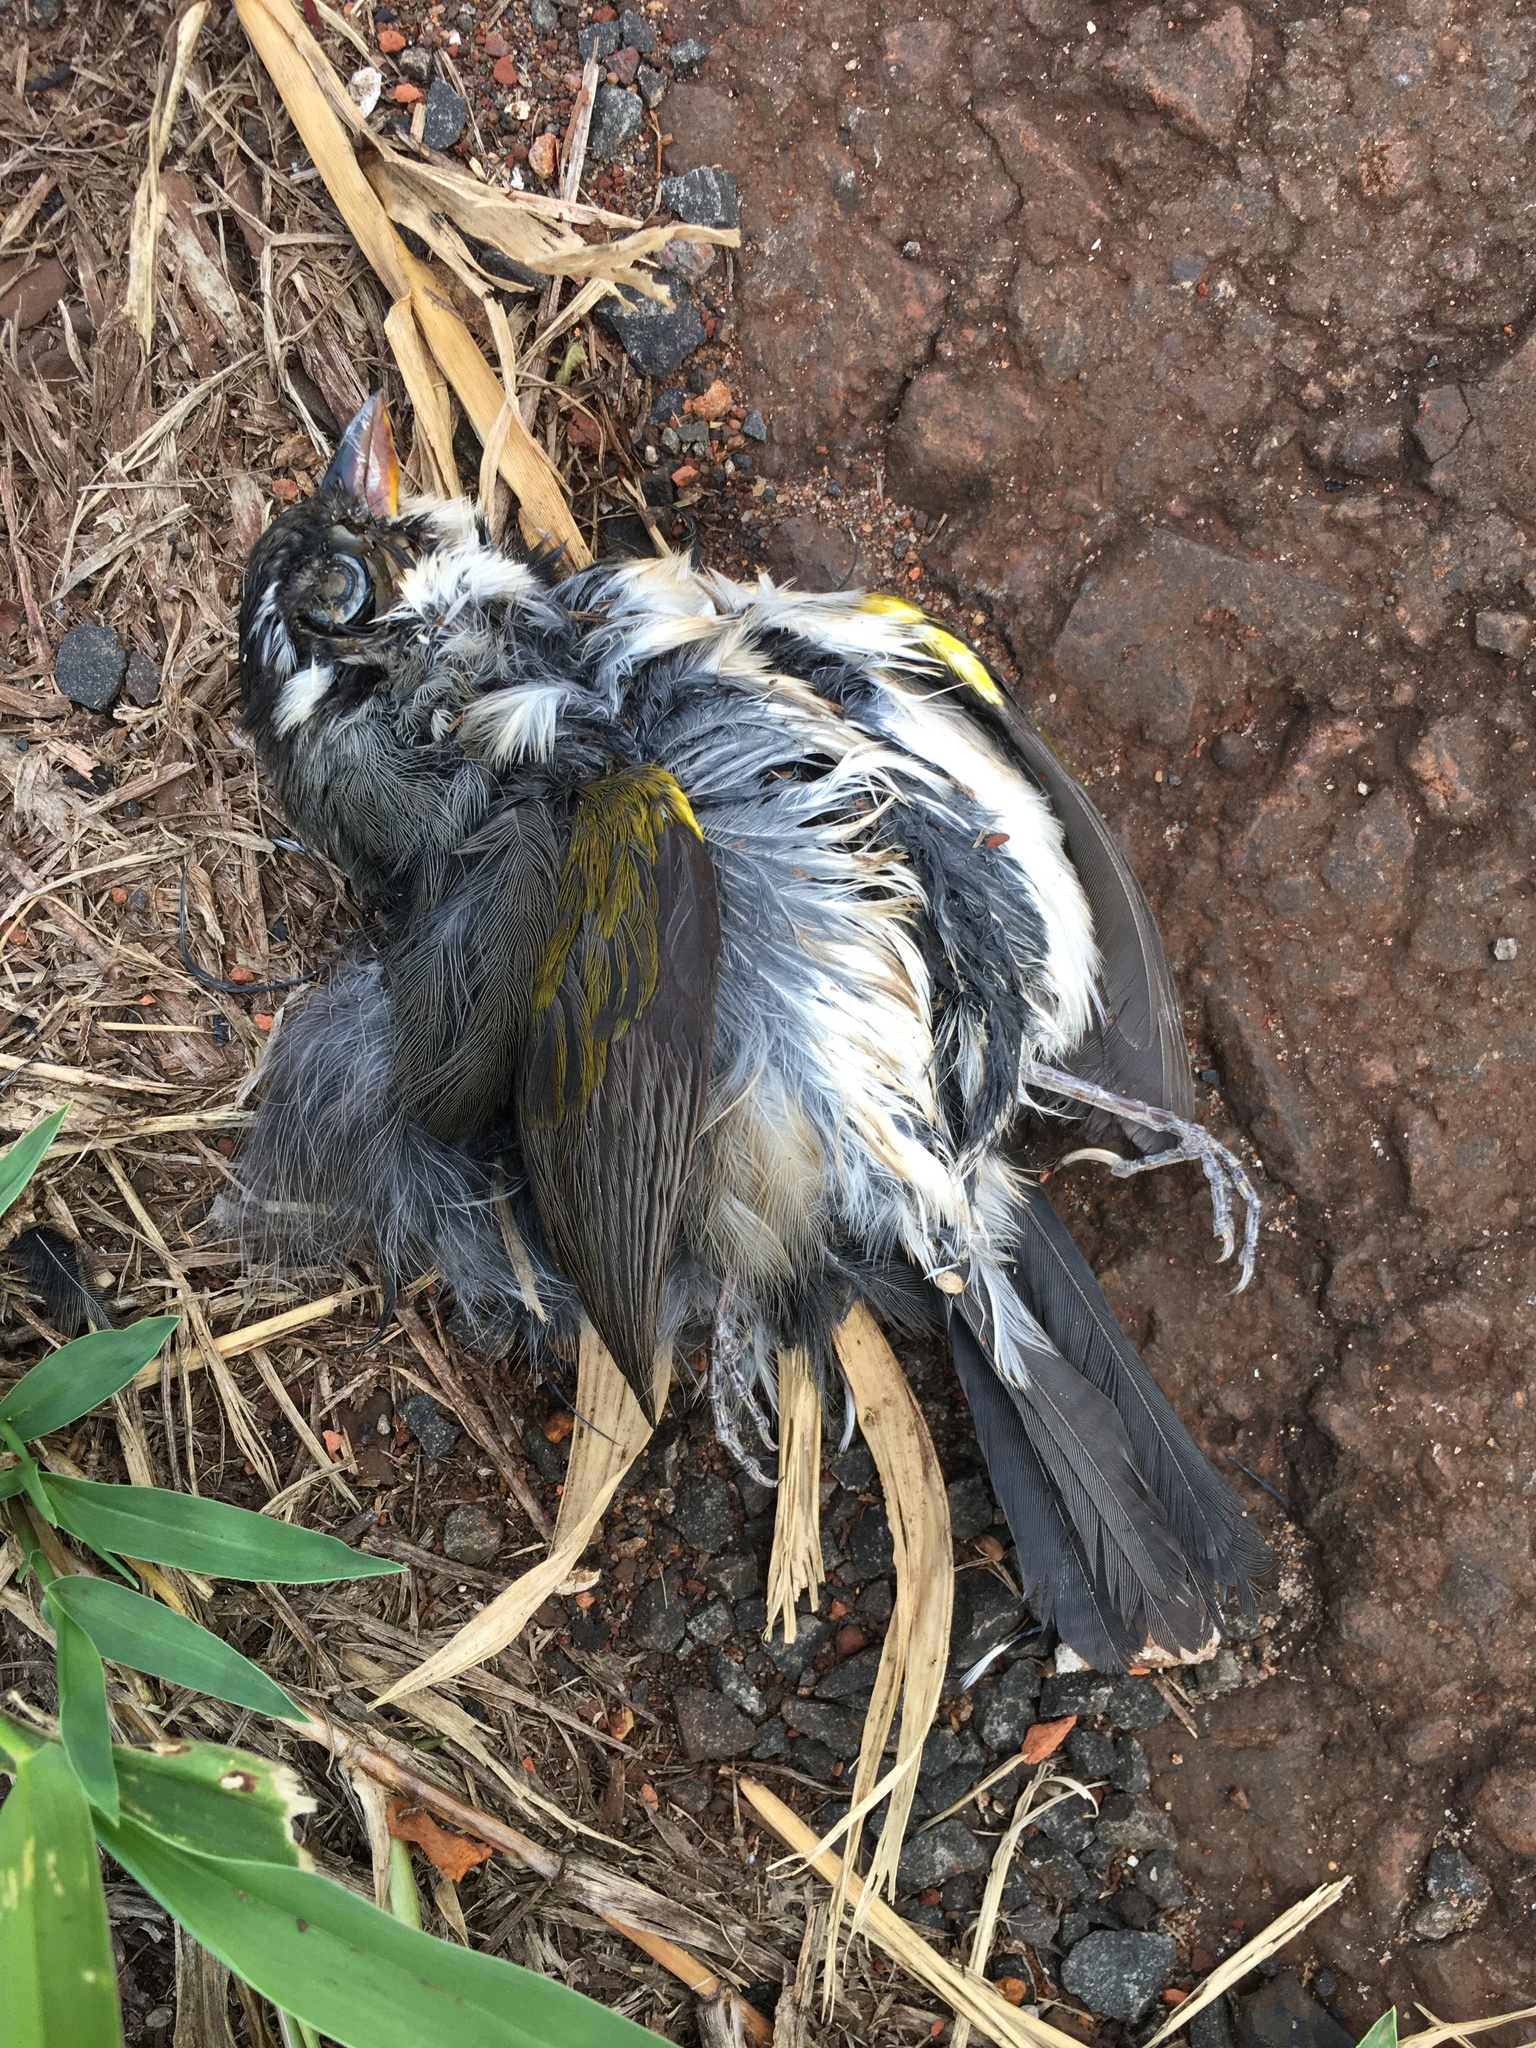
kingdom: Animalia
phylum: Chordata
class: Aves
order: Passeriformes
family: Passerellidae
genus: Arremon
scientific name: Arremon flavirostris
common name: Saffron-billed sparrow
